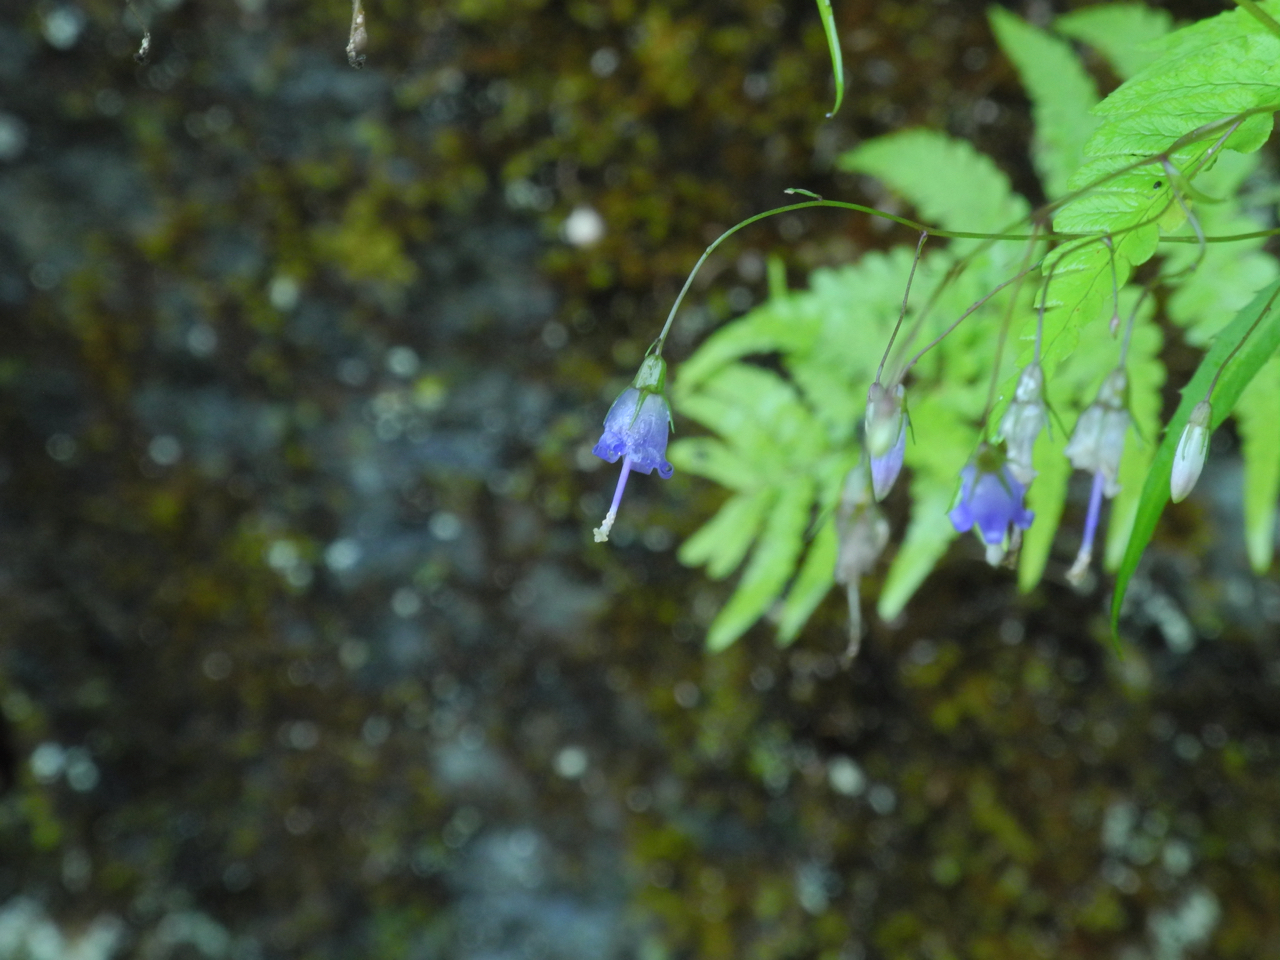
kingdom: Plantae
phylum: Tracheophyta
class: Magnoliopsida
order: Asterales
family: Campanulaceae
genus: Campanula
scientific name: Campanula divaricata
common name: Appalachian bellflower
